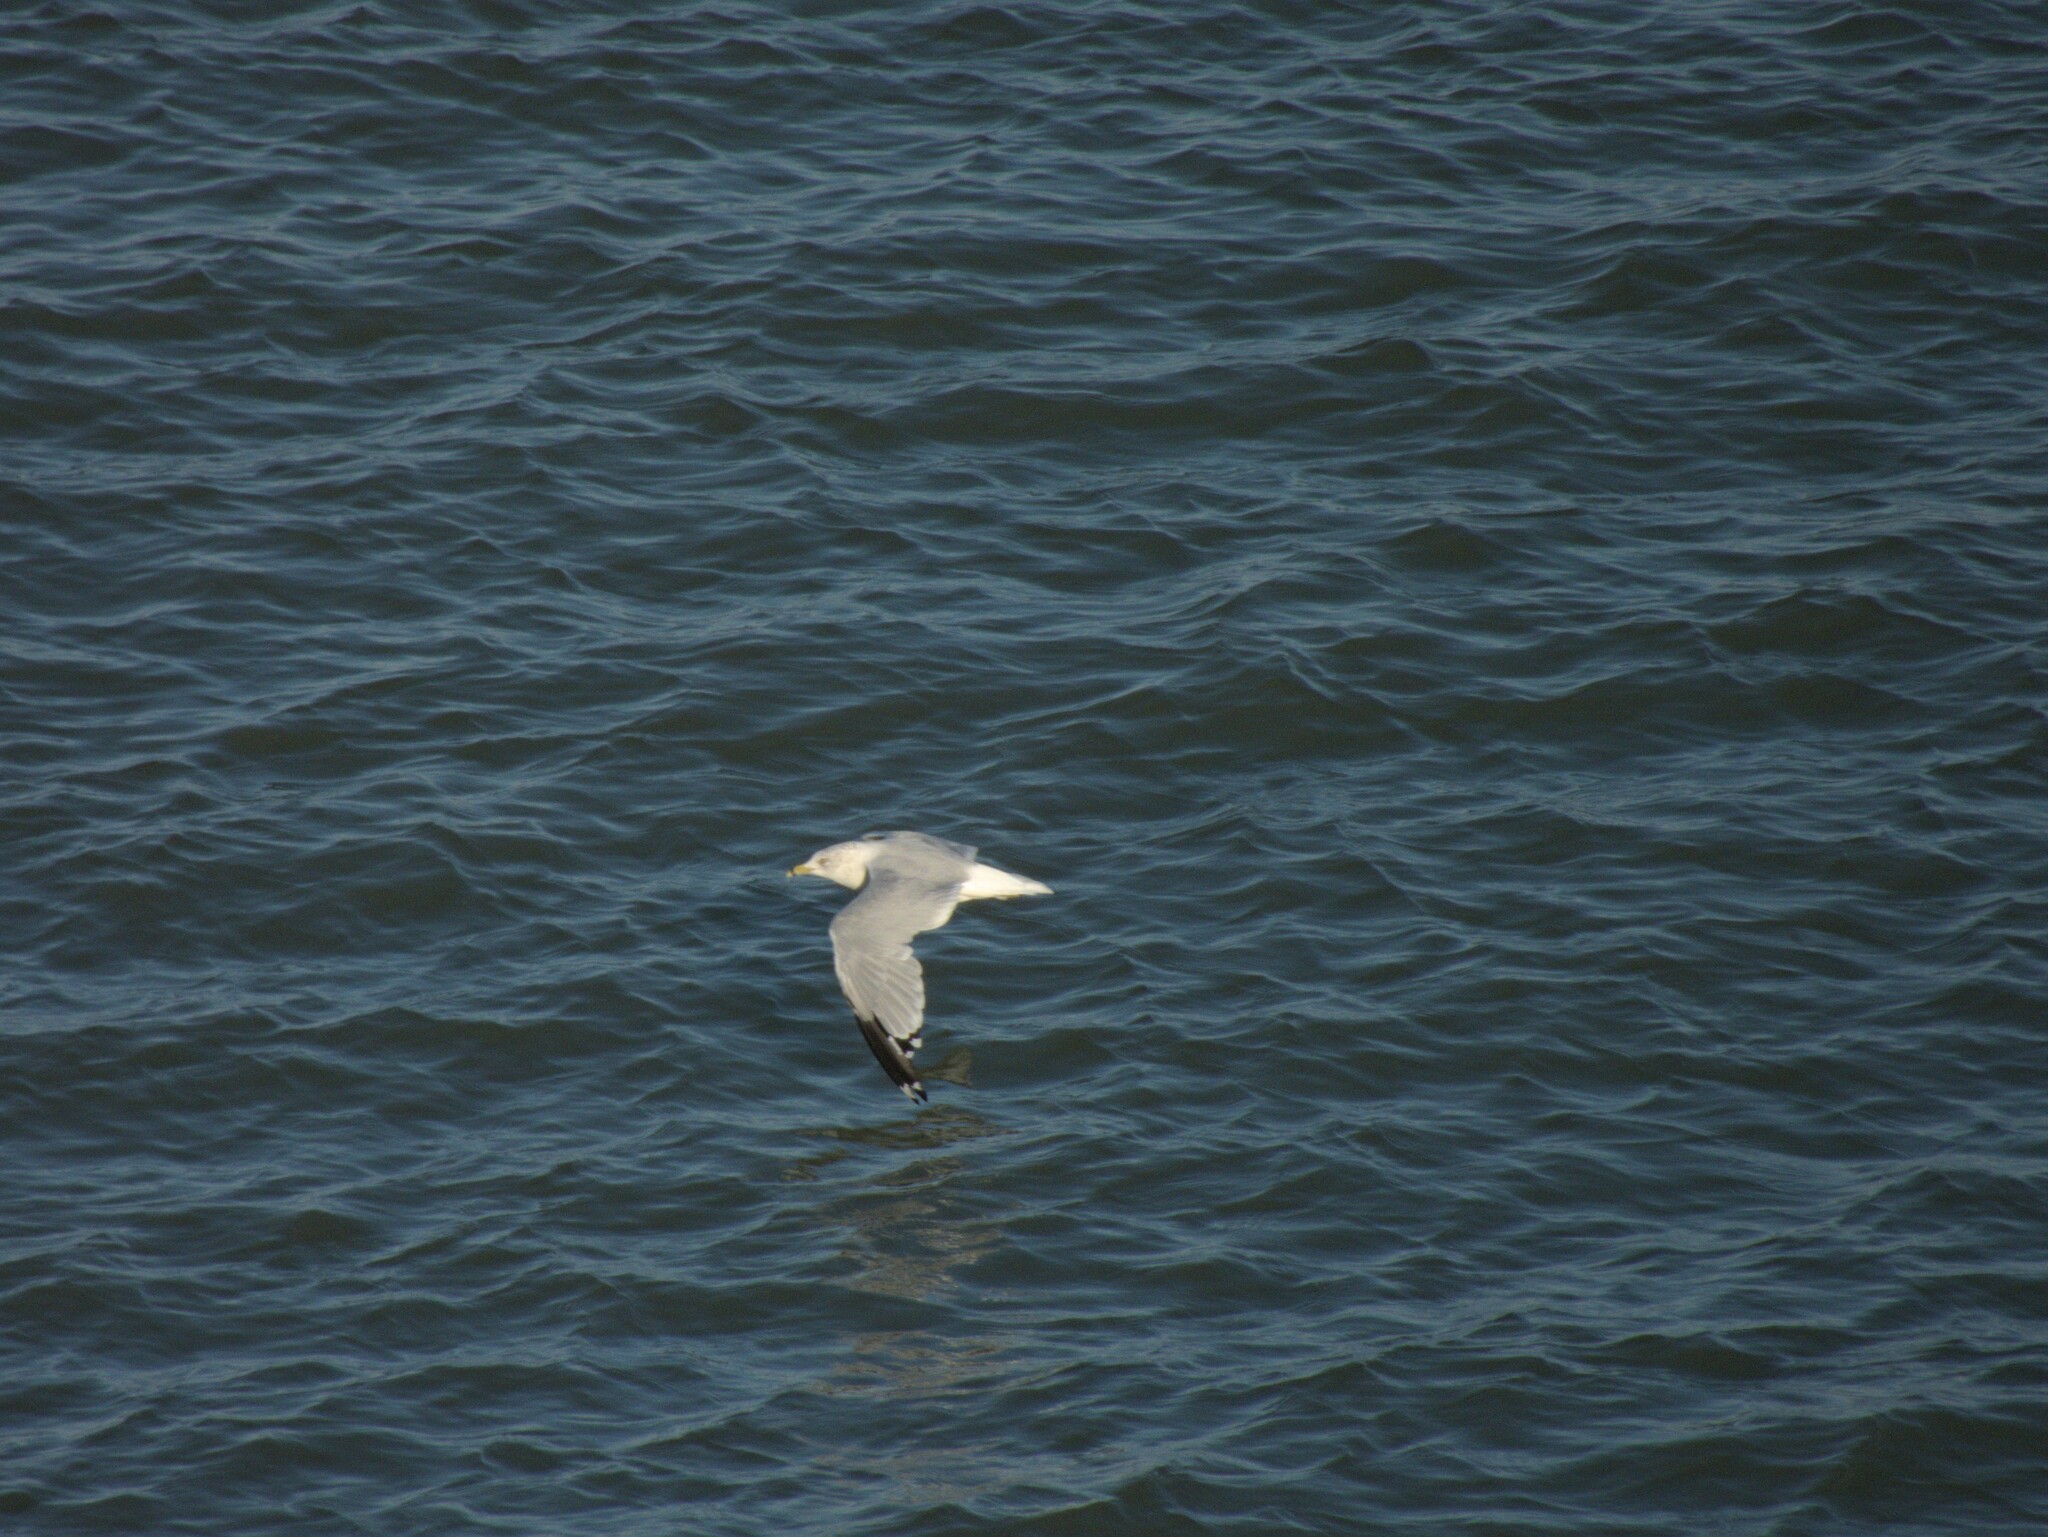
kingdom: Animalia
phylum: Chordata
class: Aves
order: Charadriiformes
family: Laridae
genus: Larus
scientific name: Larus delawarensis
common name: Ring-billed gull
